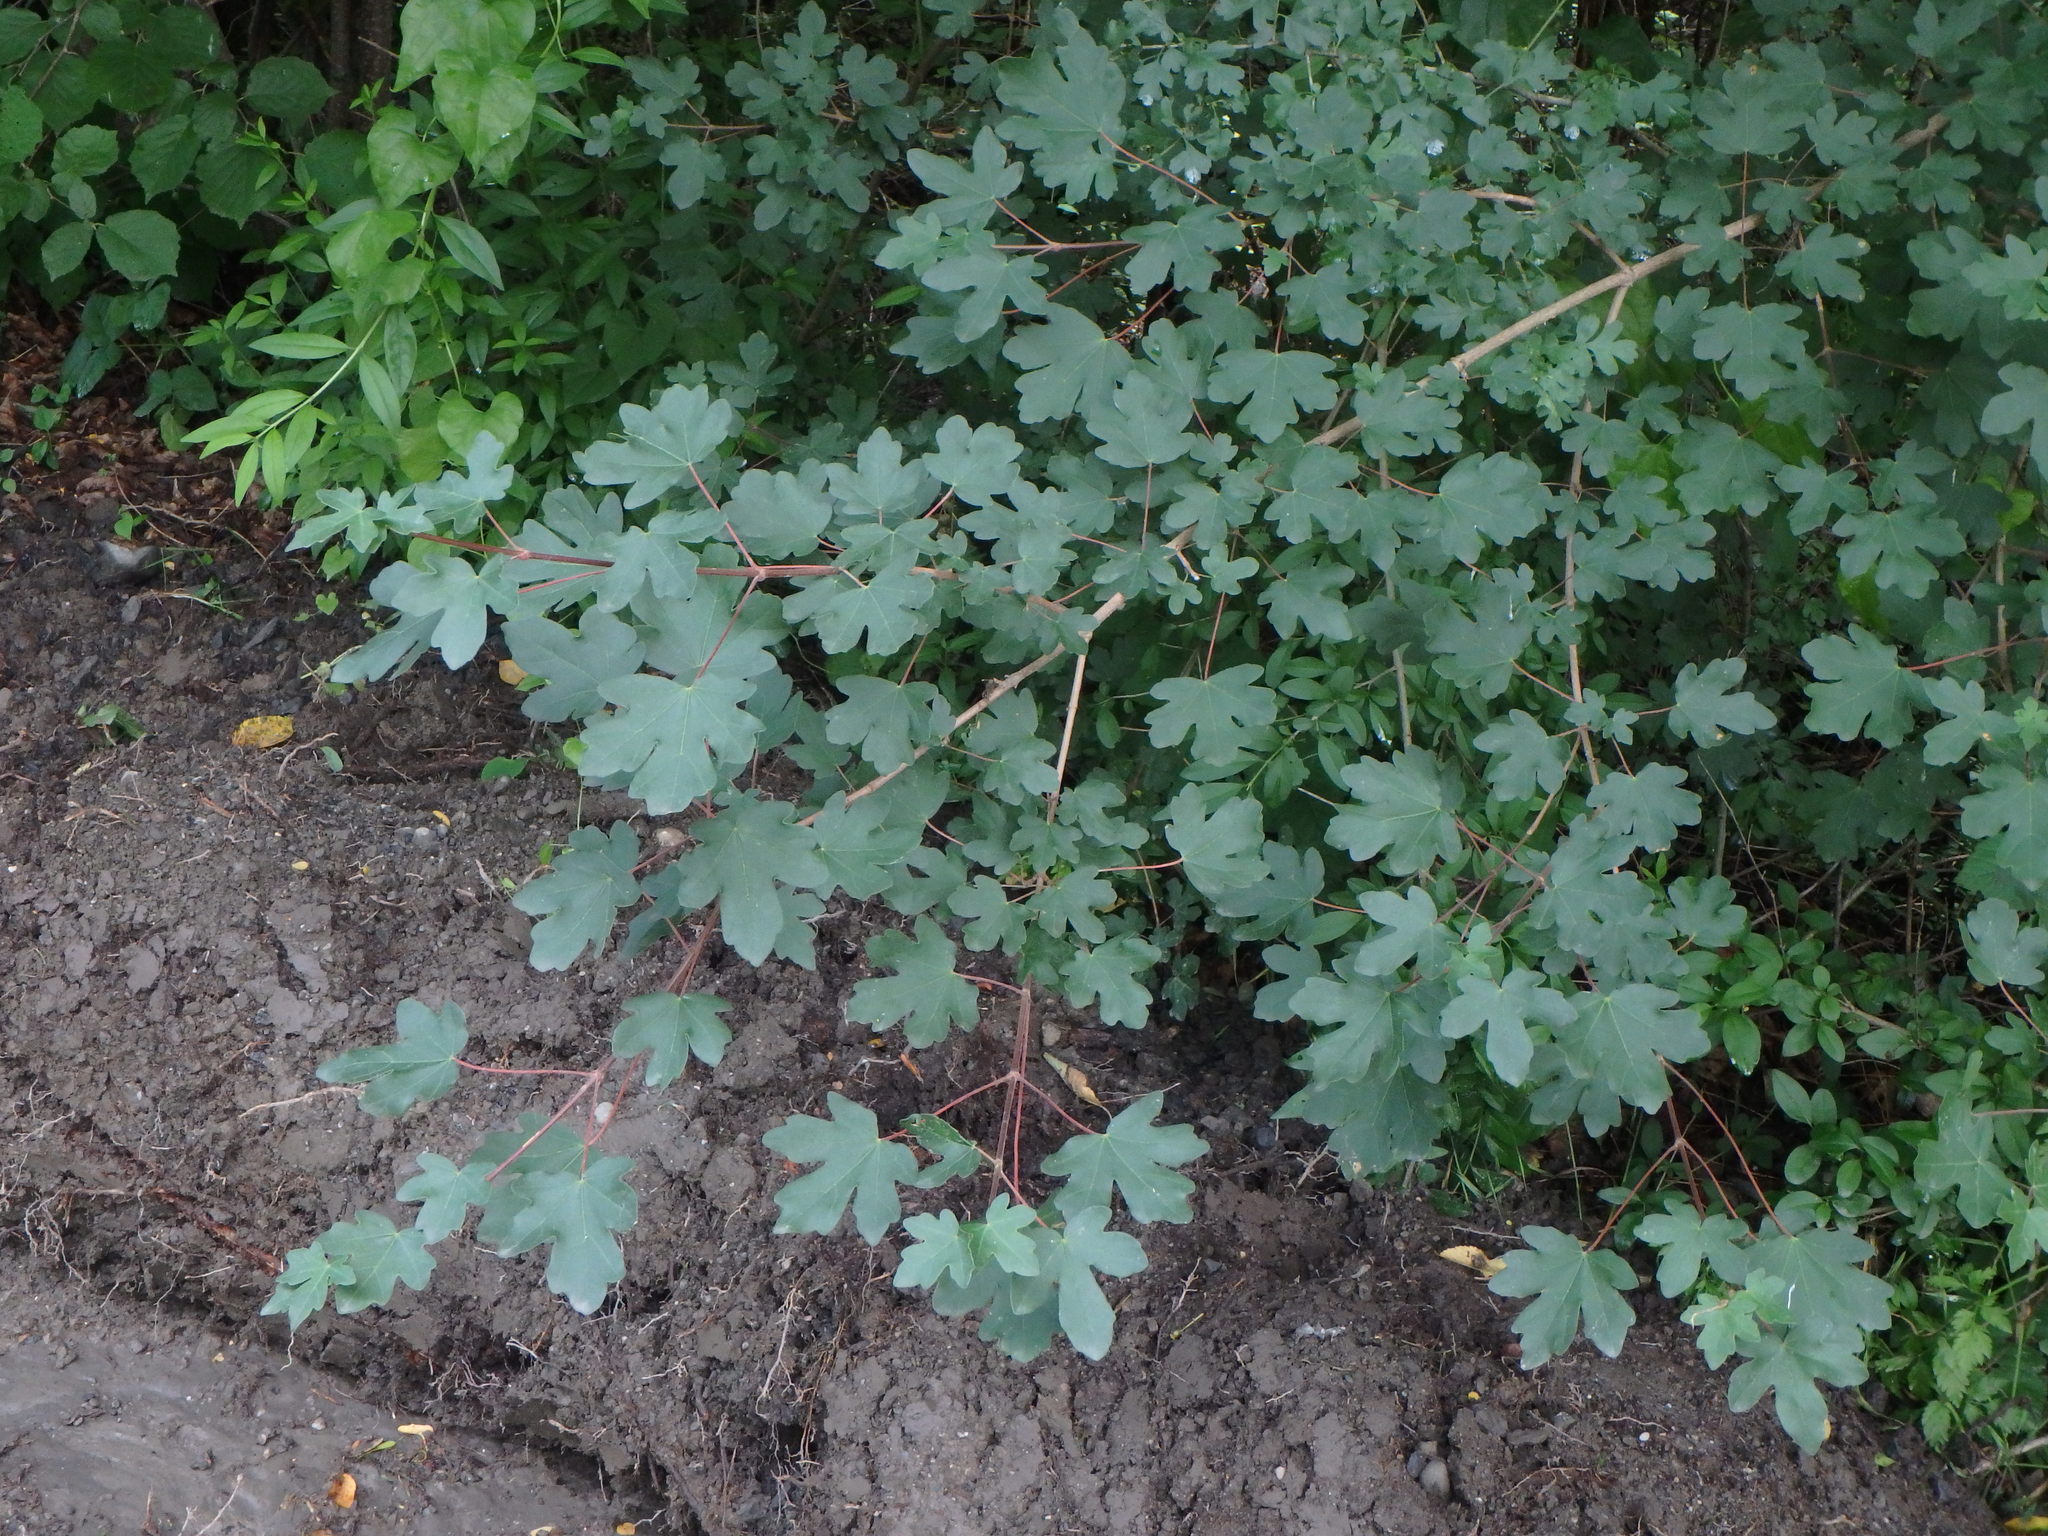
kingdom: Plantae
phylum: Tracheophyta
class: Magnoliopsida
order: Sapindales
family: Sapindaceae
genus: Acer
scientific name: Acer campestre
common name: Field maple
